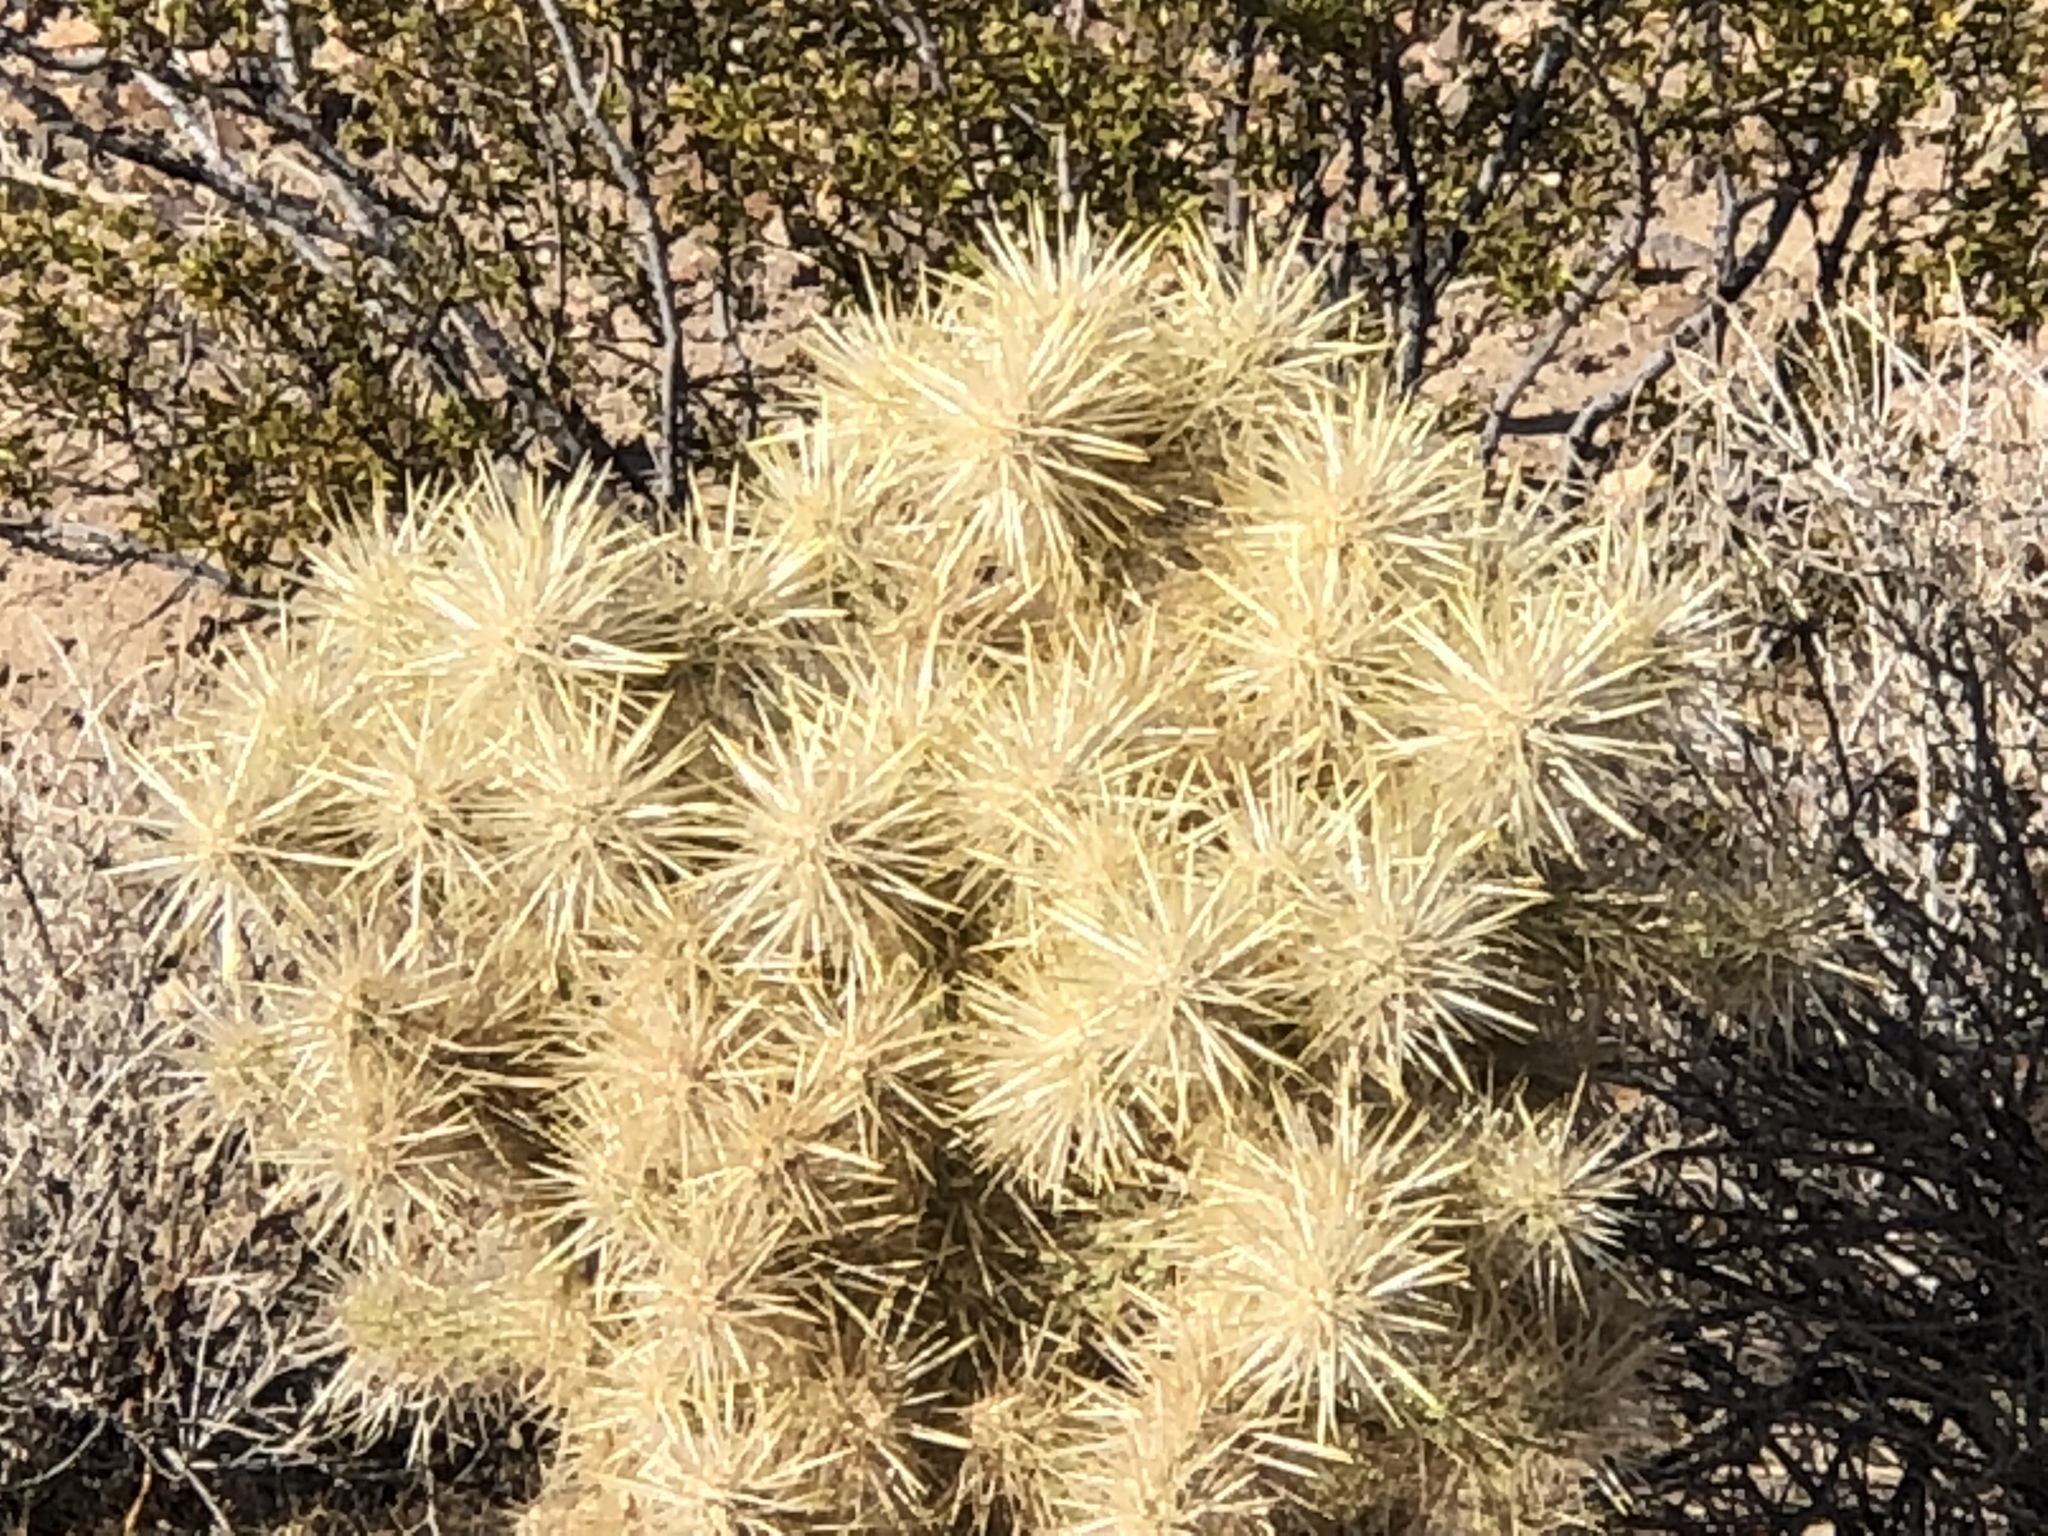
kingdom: Plantae
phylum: Tracheophyta
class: Magnoliopsida
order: Caryophyllales
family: Cactaceae
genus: Cylindropuntia
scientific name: Cylindropuntia echinocarpa
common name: Ground cholla
